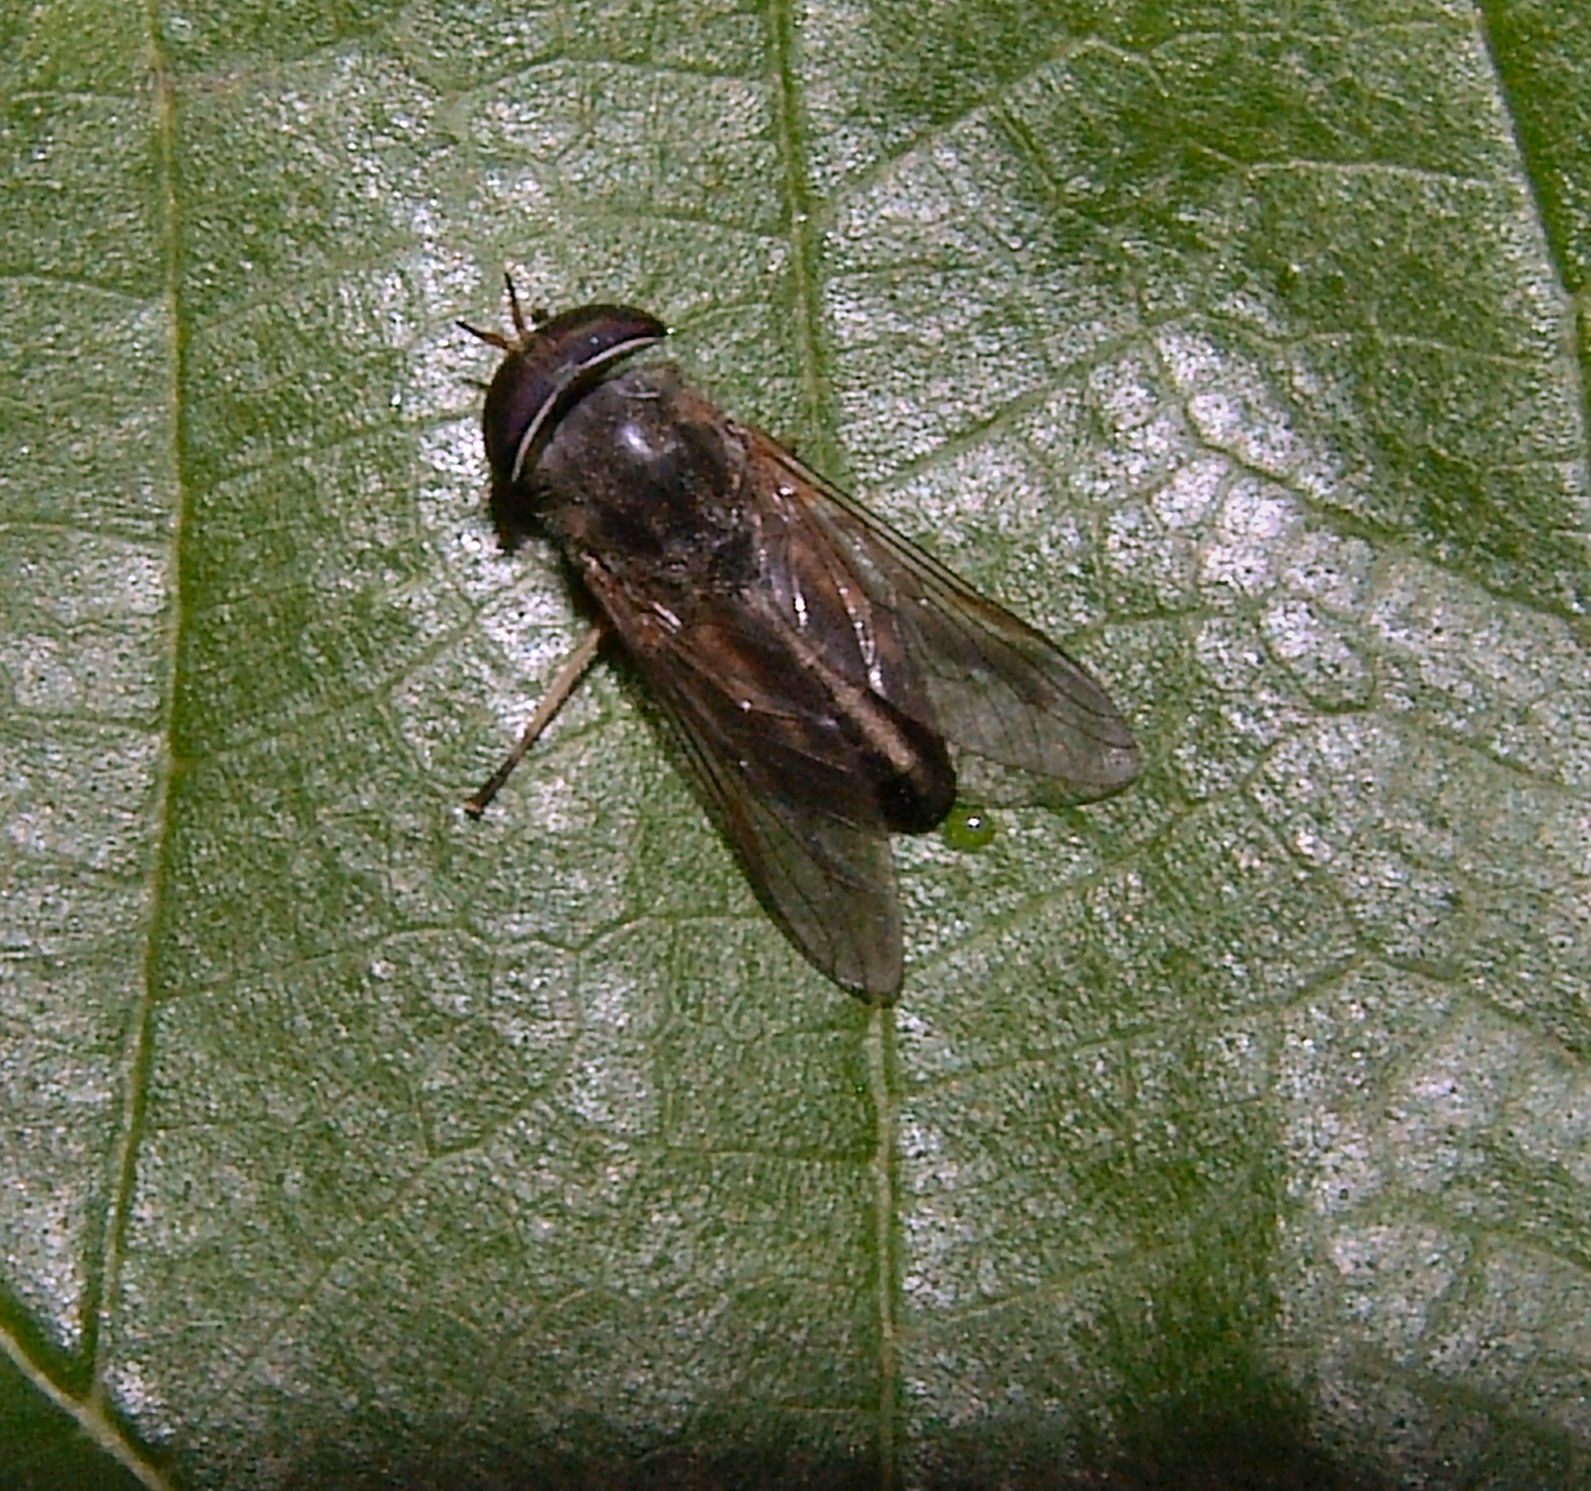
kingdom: Animalia
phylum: Arthropoda
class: Insecta
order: Diptera
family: Tabanidae
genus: Tabanus
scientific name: Tabanus lineola
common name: Striped horse fly
